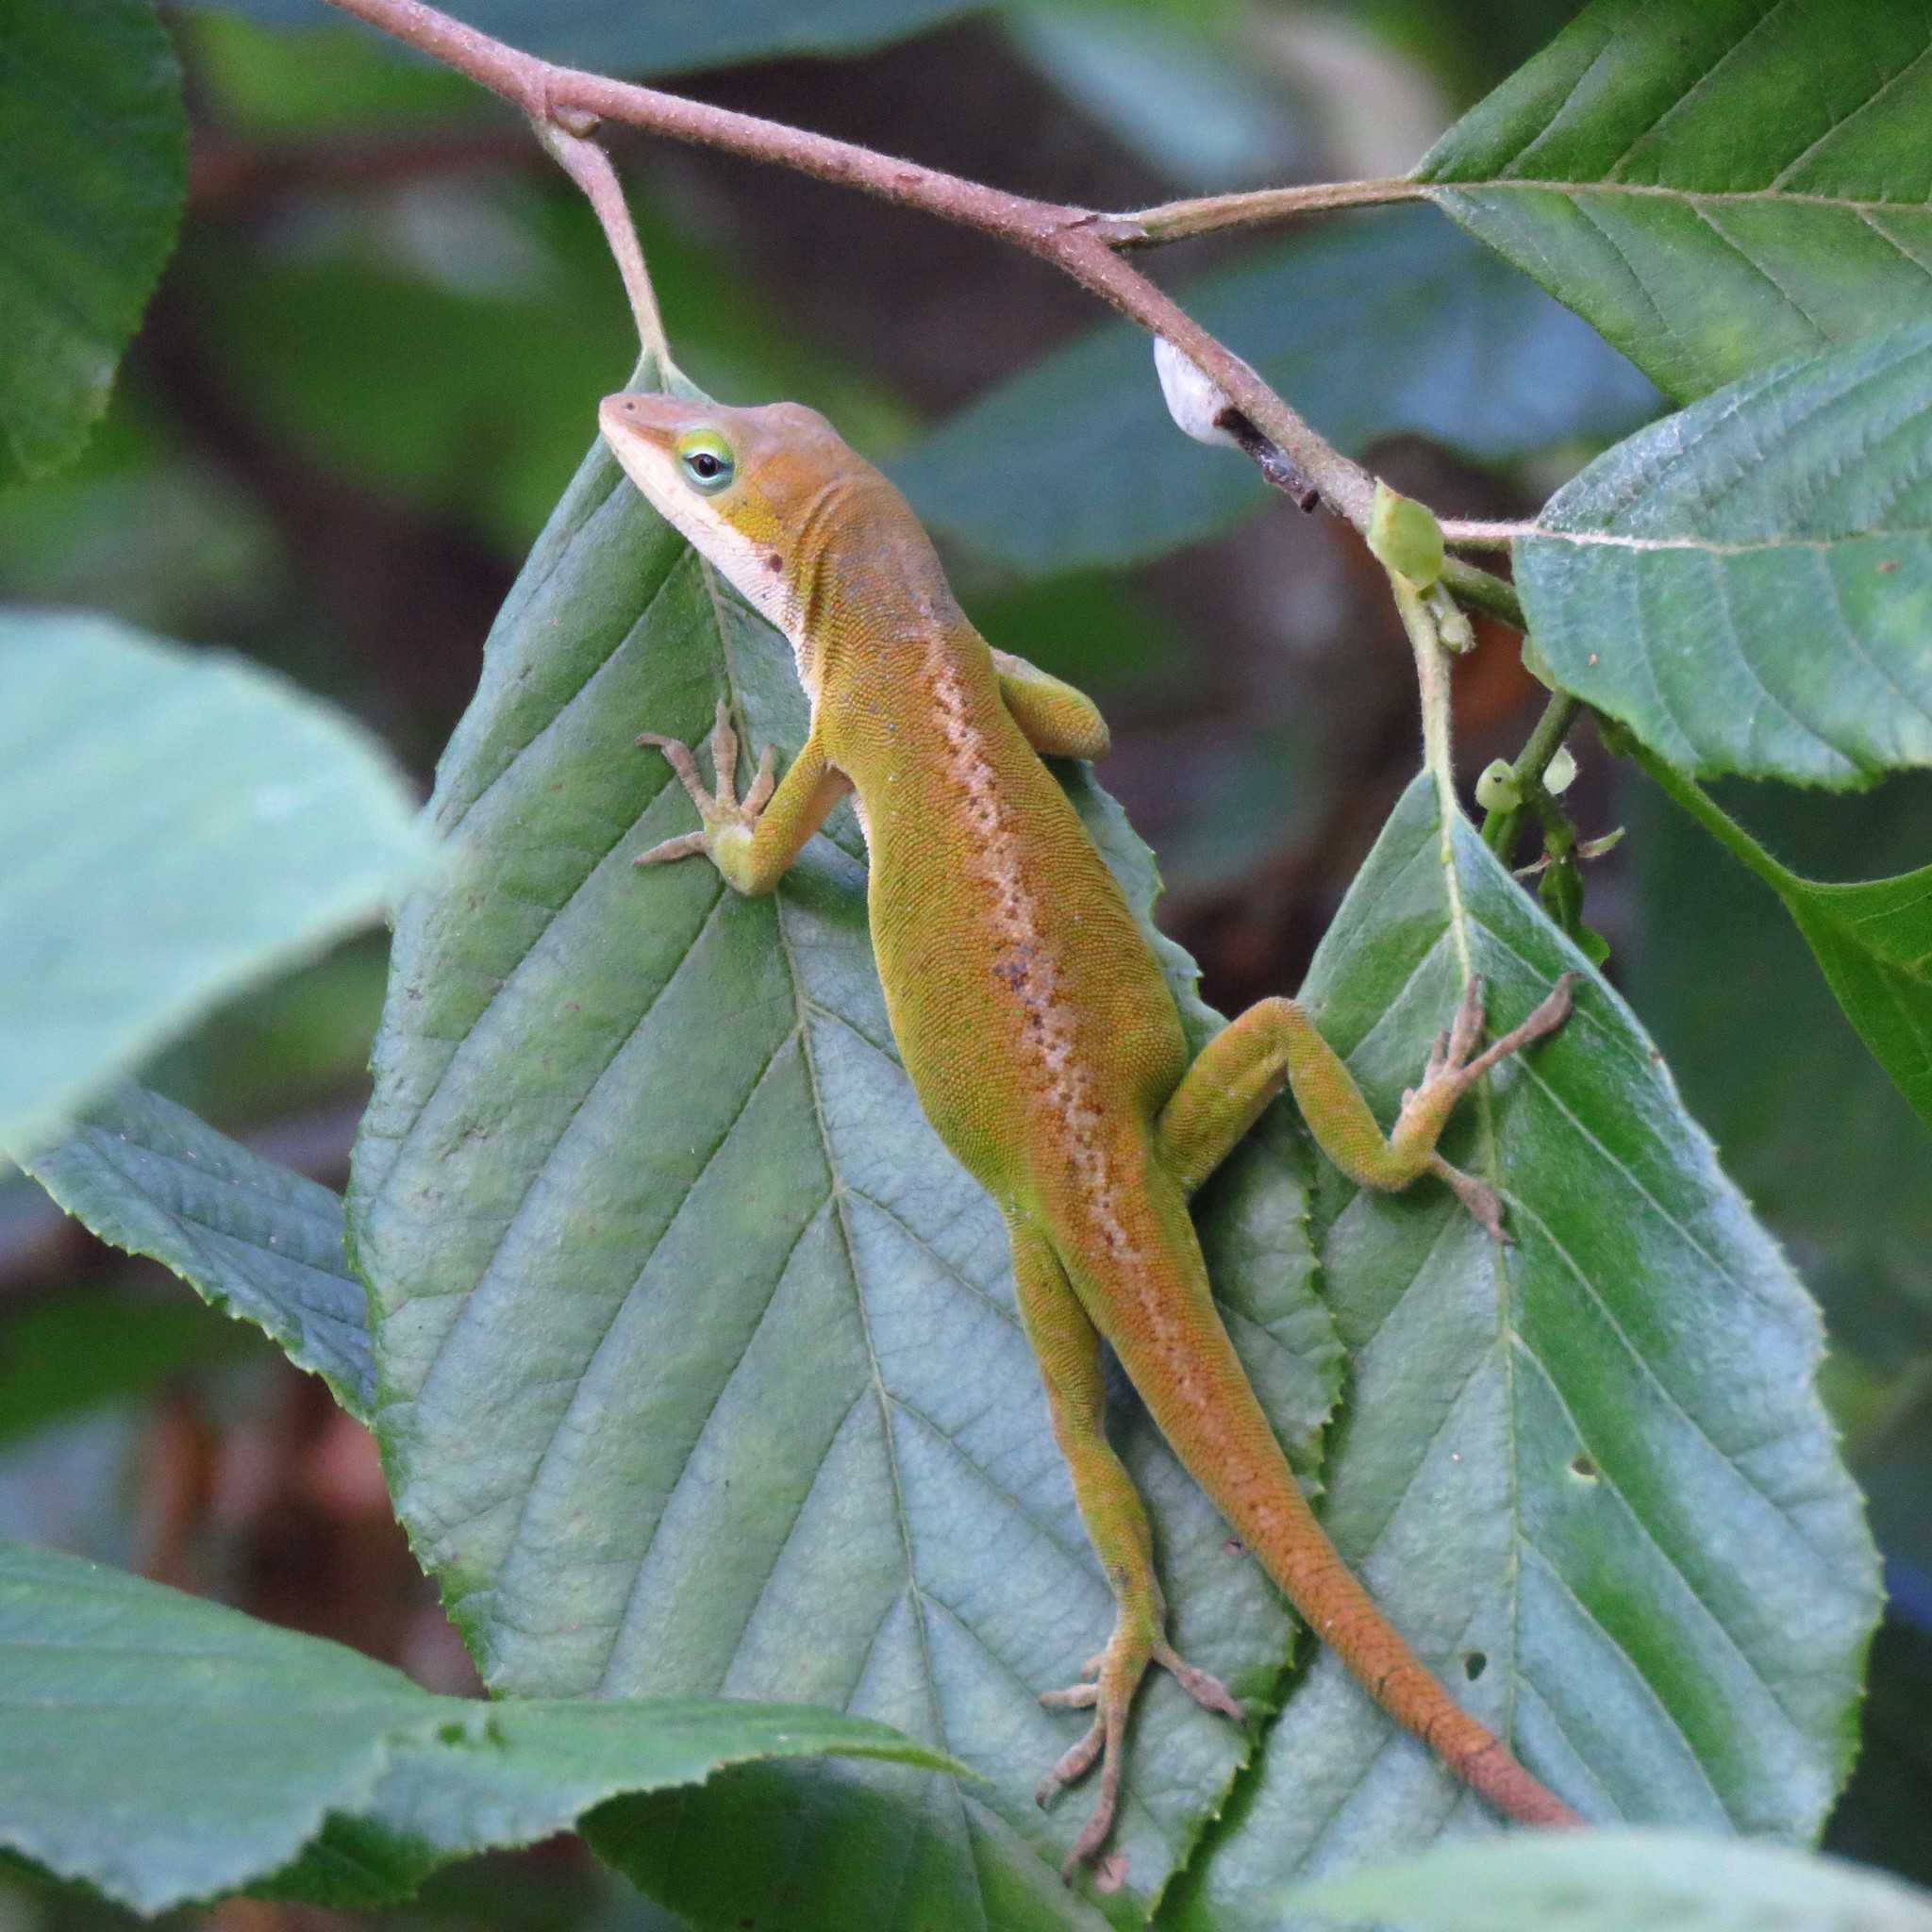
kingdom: Animalia
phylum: Chordata
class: Squamata
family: Dactyloidae
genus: Anolis
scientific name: Anolis carolinensis
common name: Green anole
